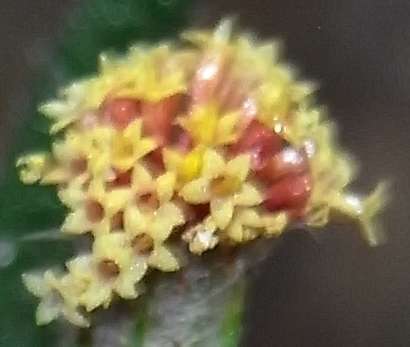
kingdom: Plantae
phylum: Tracheophyta
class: Magnoliopsida
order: Asterales
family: Asteraceae
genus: Podotheca
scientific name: Podotheca angustifolia
